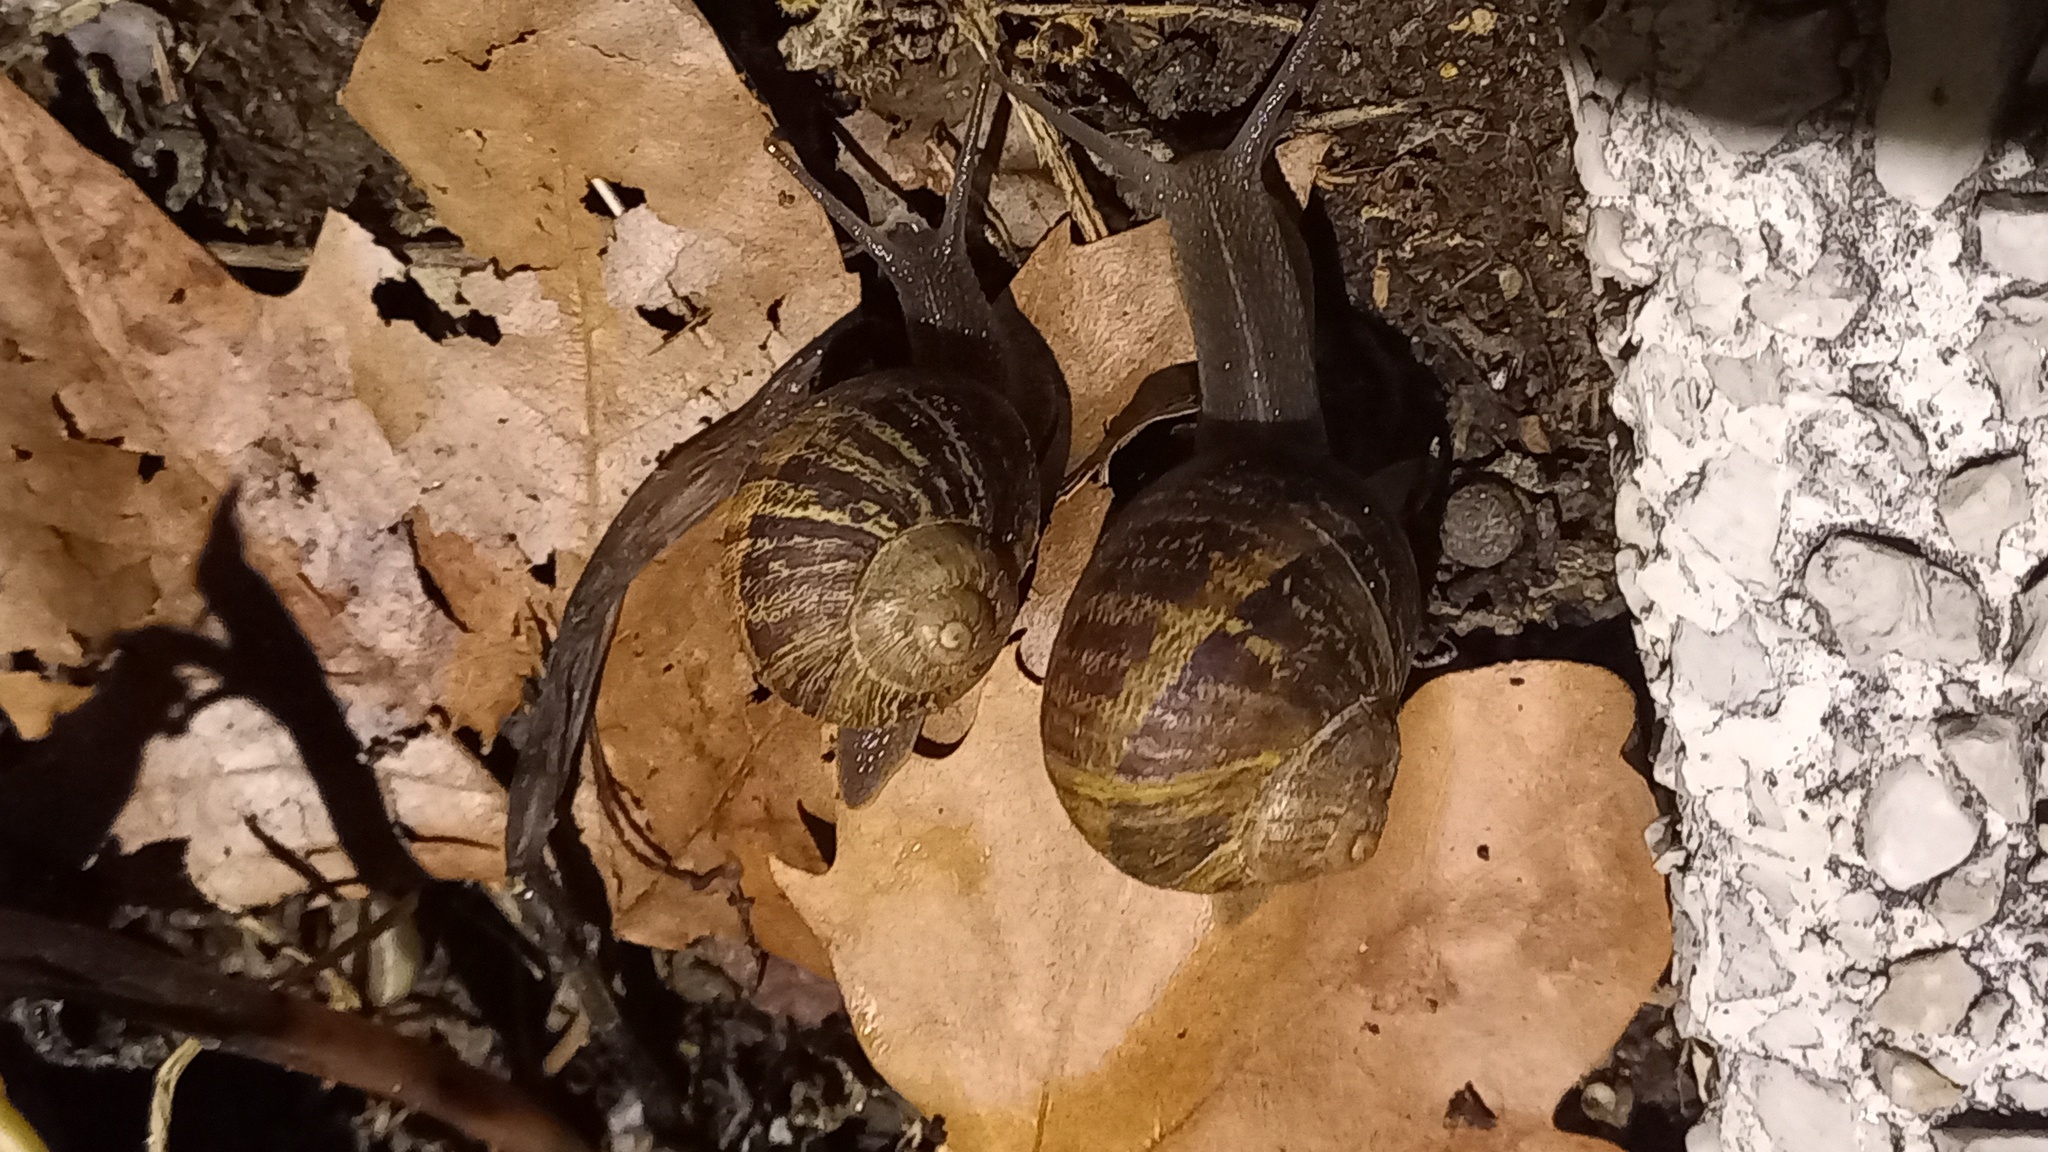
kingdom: Animalia
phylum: Mollusca
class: Gastropoda
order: Stylommatophora
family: Helicidae
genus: Cornu
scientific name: Cornu aspersum
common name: Brown garden snail
